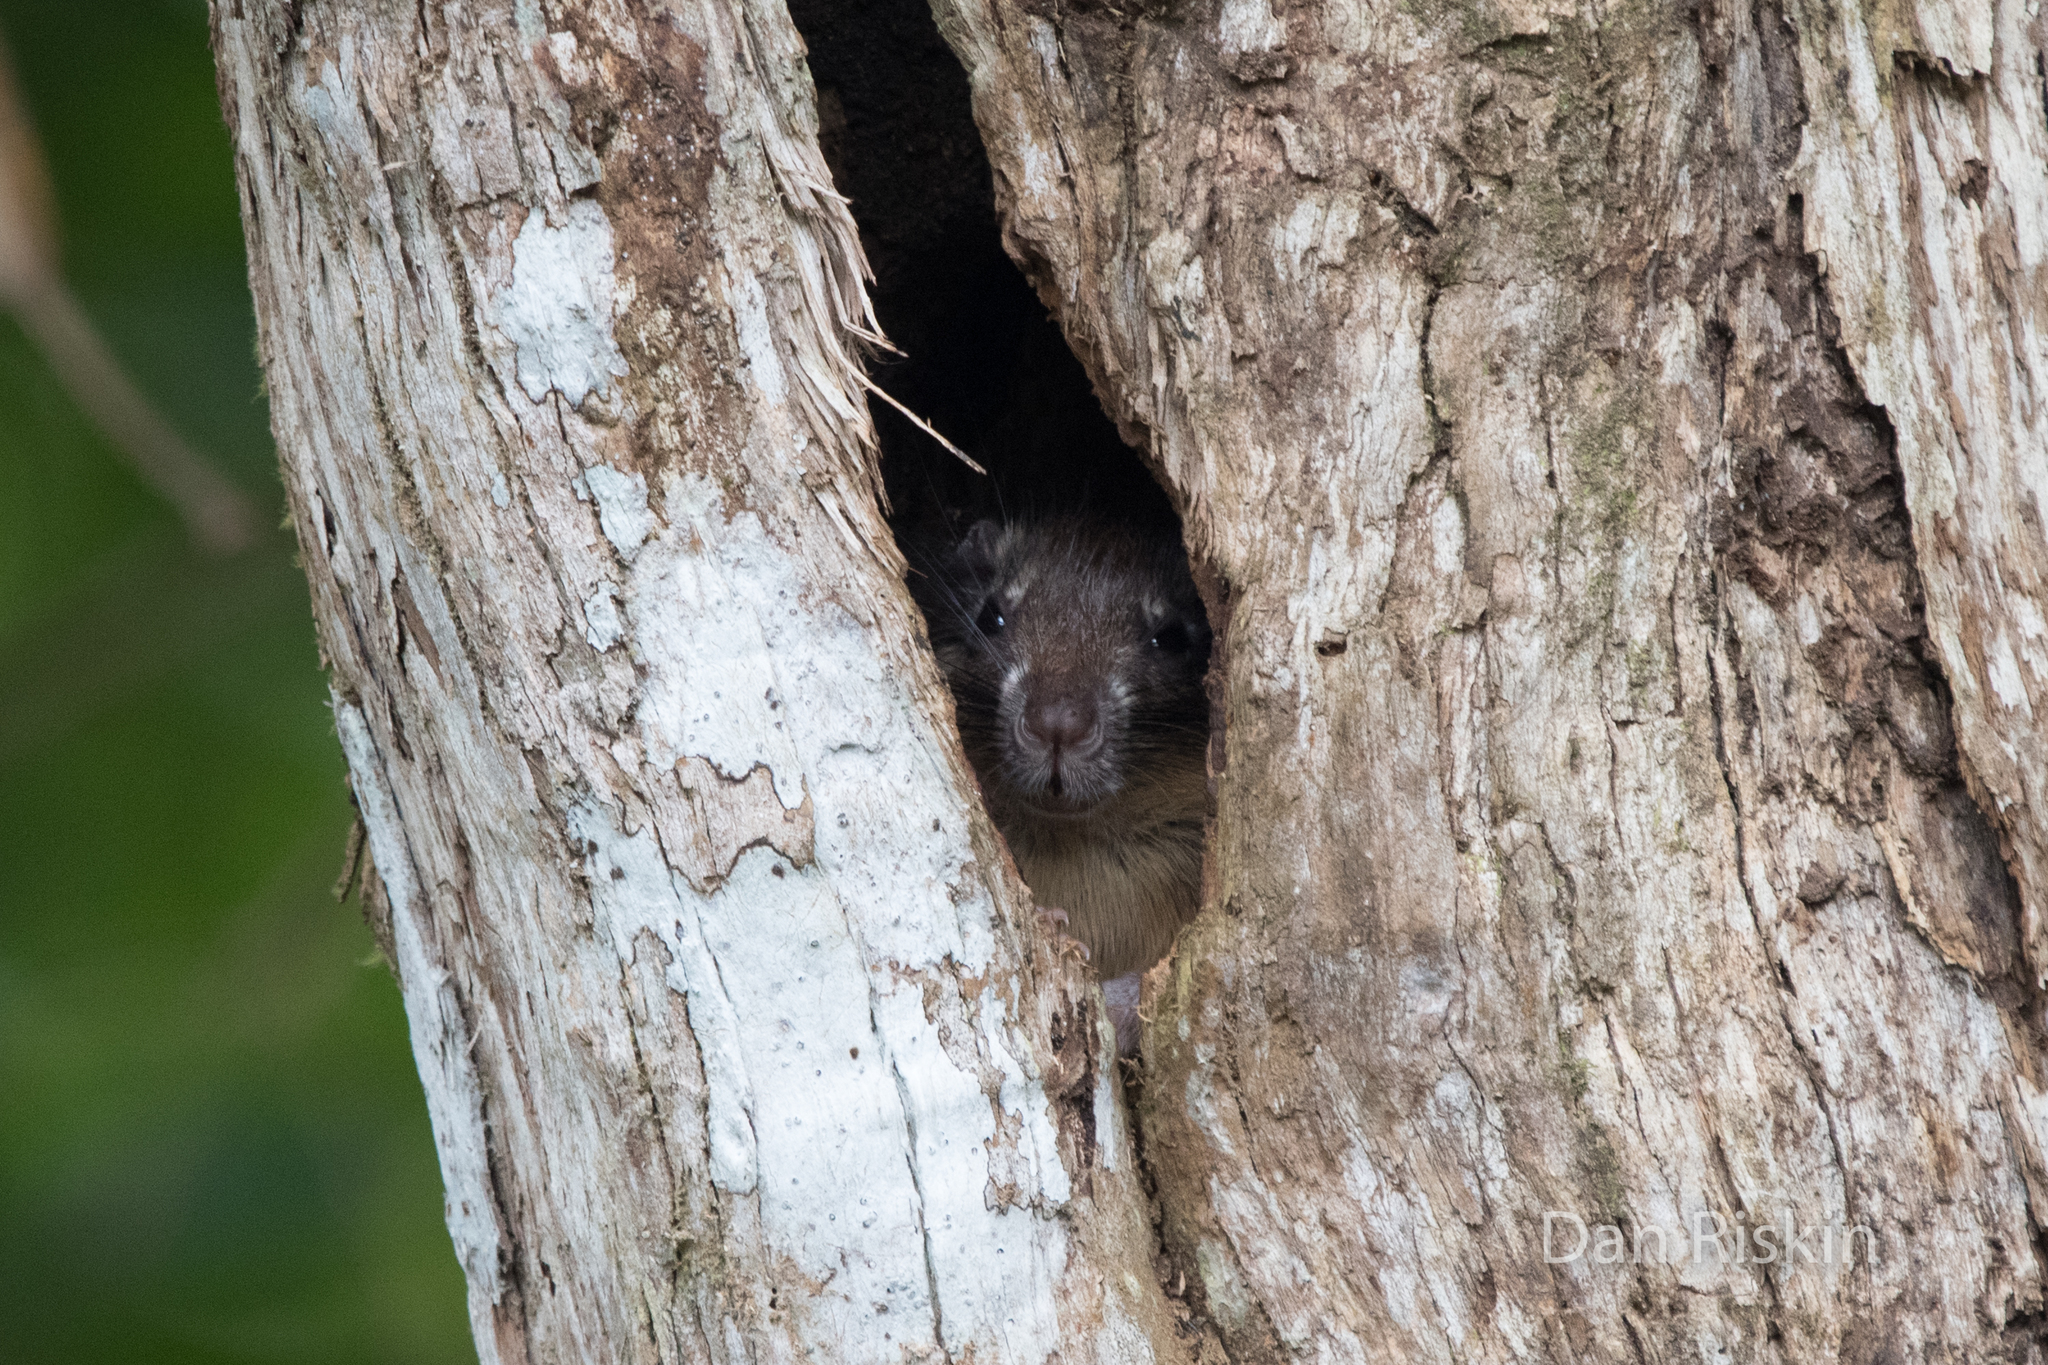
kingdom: Animalia
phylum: Chordata
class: Mammalia
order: Rodentia
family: Echimyidae
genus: Diplomys
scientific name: Diplomys labilis
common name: Rufous soft-furred spiny-rat
